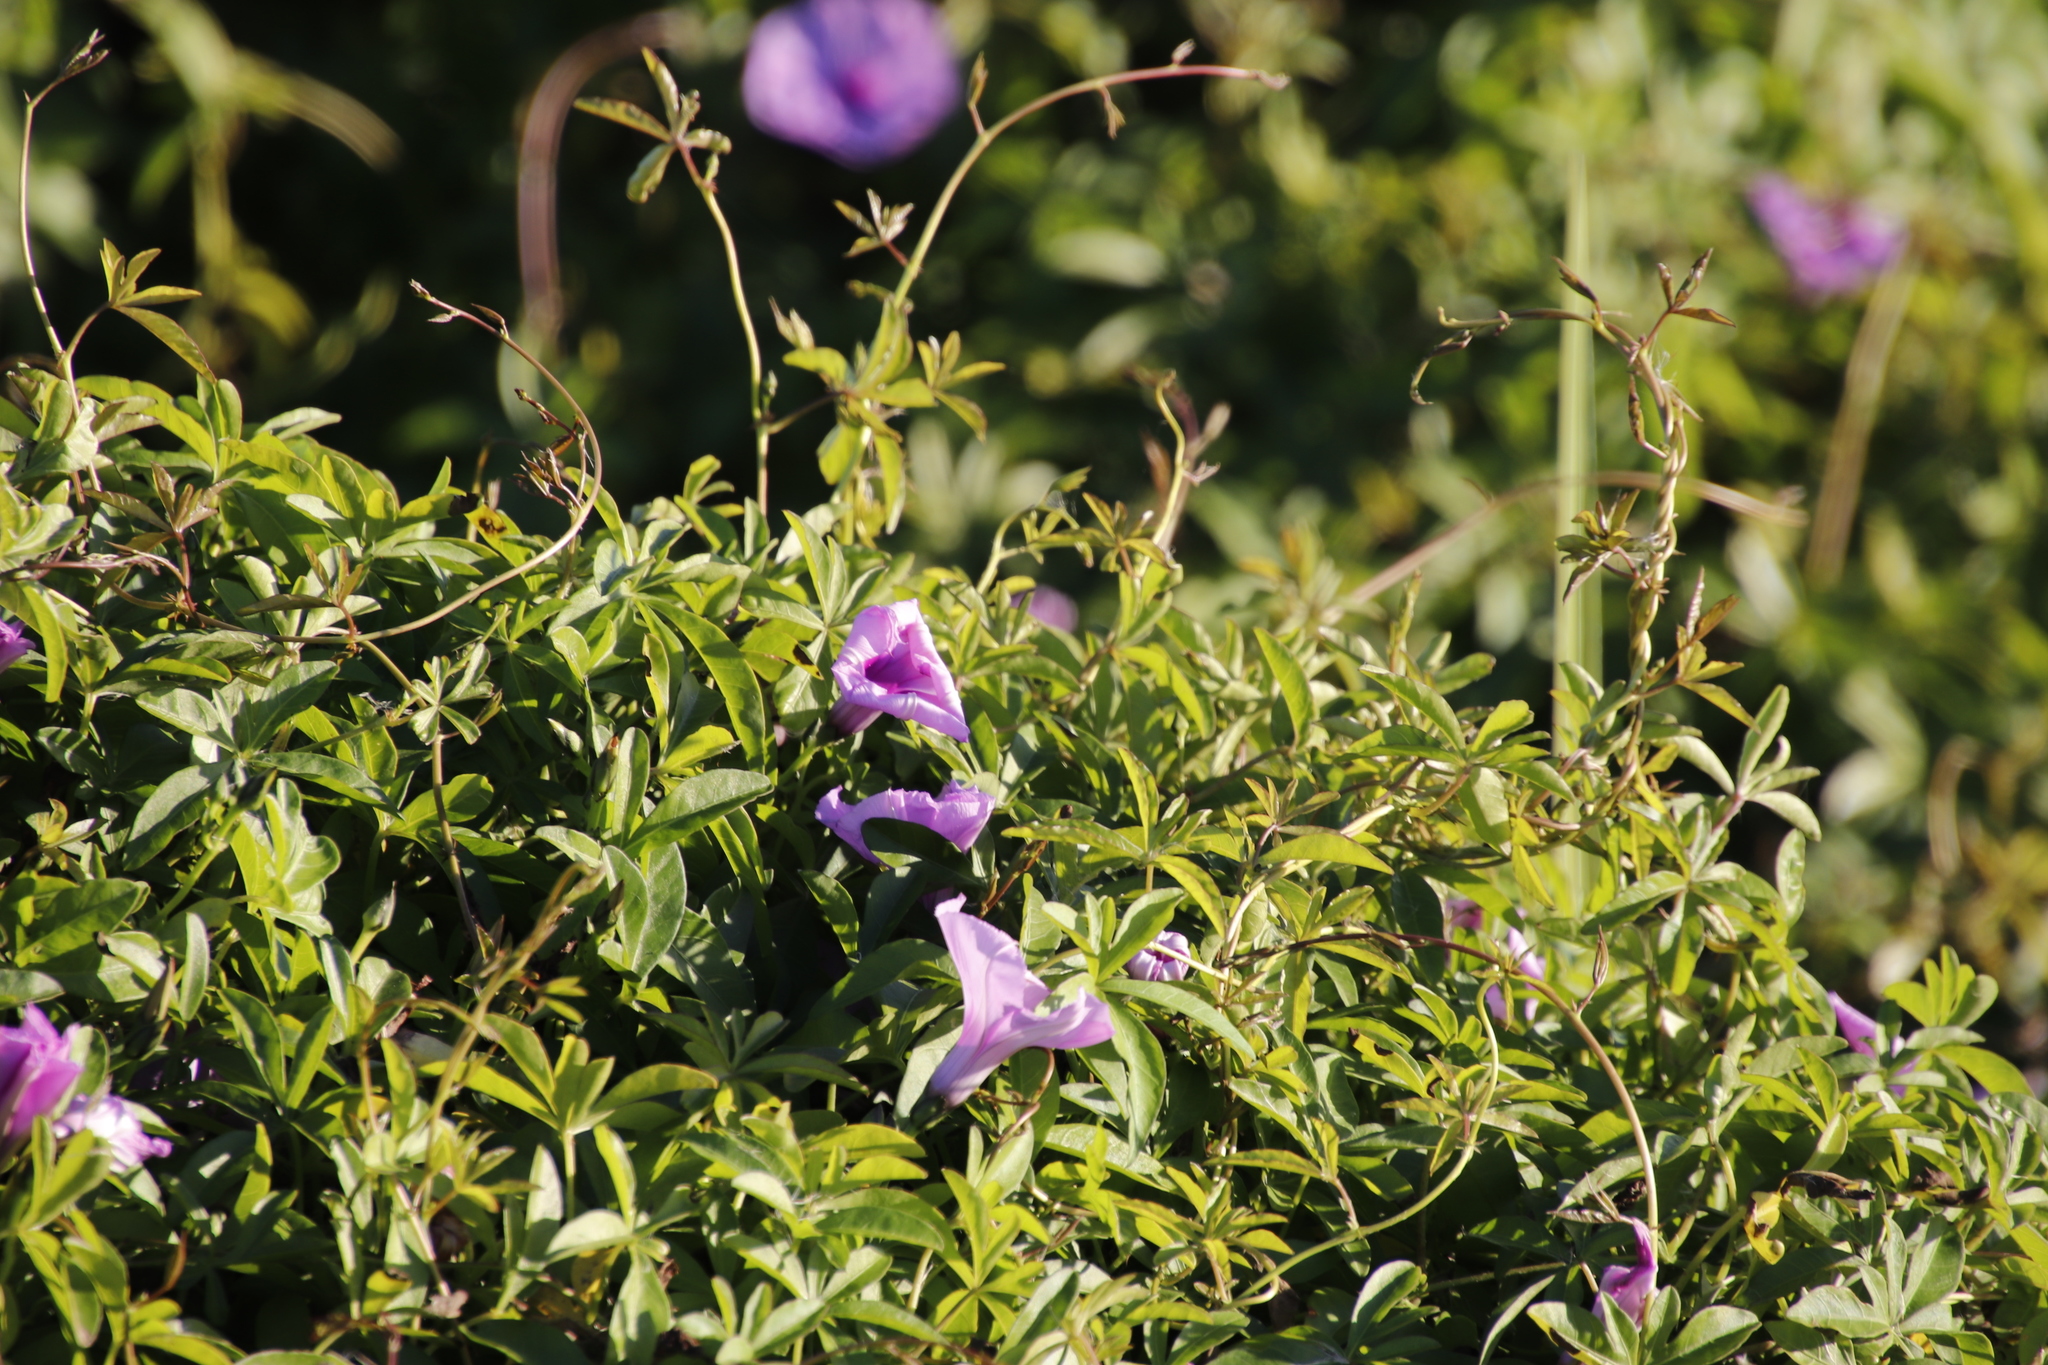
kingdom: Plantae
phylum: Tracheophyta
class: Magnoliopsida
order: Solanales
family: Convolvulaceae
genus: Ipomoea
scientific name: Ipomoea cairica
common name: Mile a minute vine
